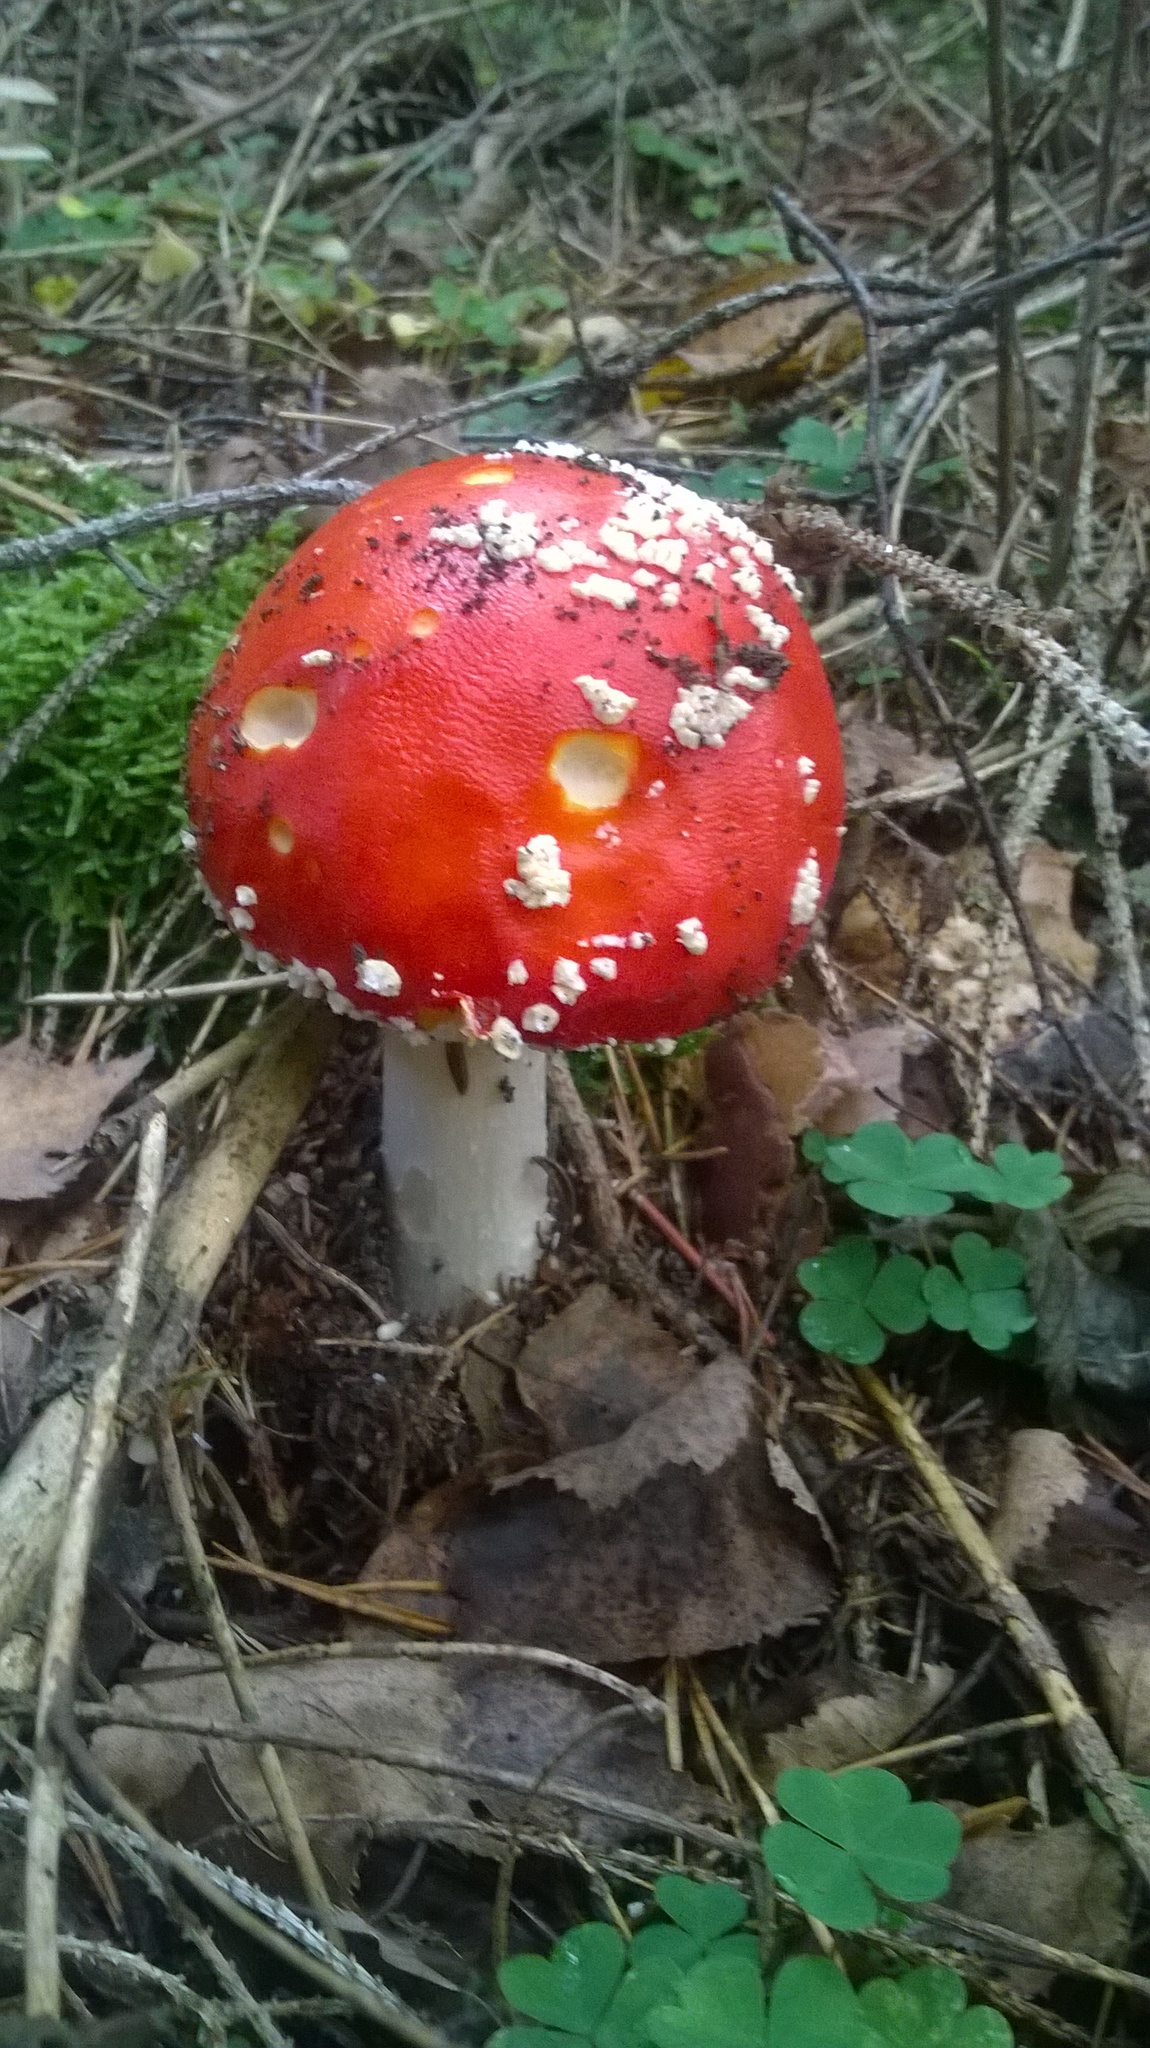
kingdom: Fungi
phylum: Basidiomycota
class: Agaricomycetes
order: Agaricales
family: Amanitaceae
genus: Amanita
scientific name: Amanita muscaria
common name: Fly agaric
